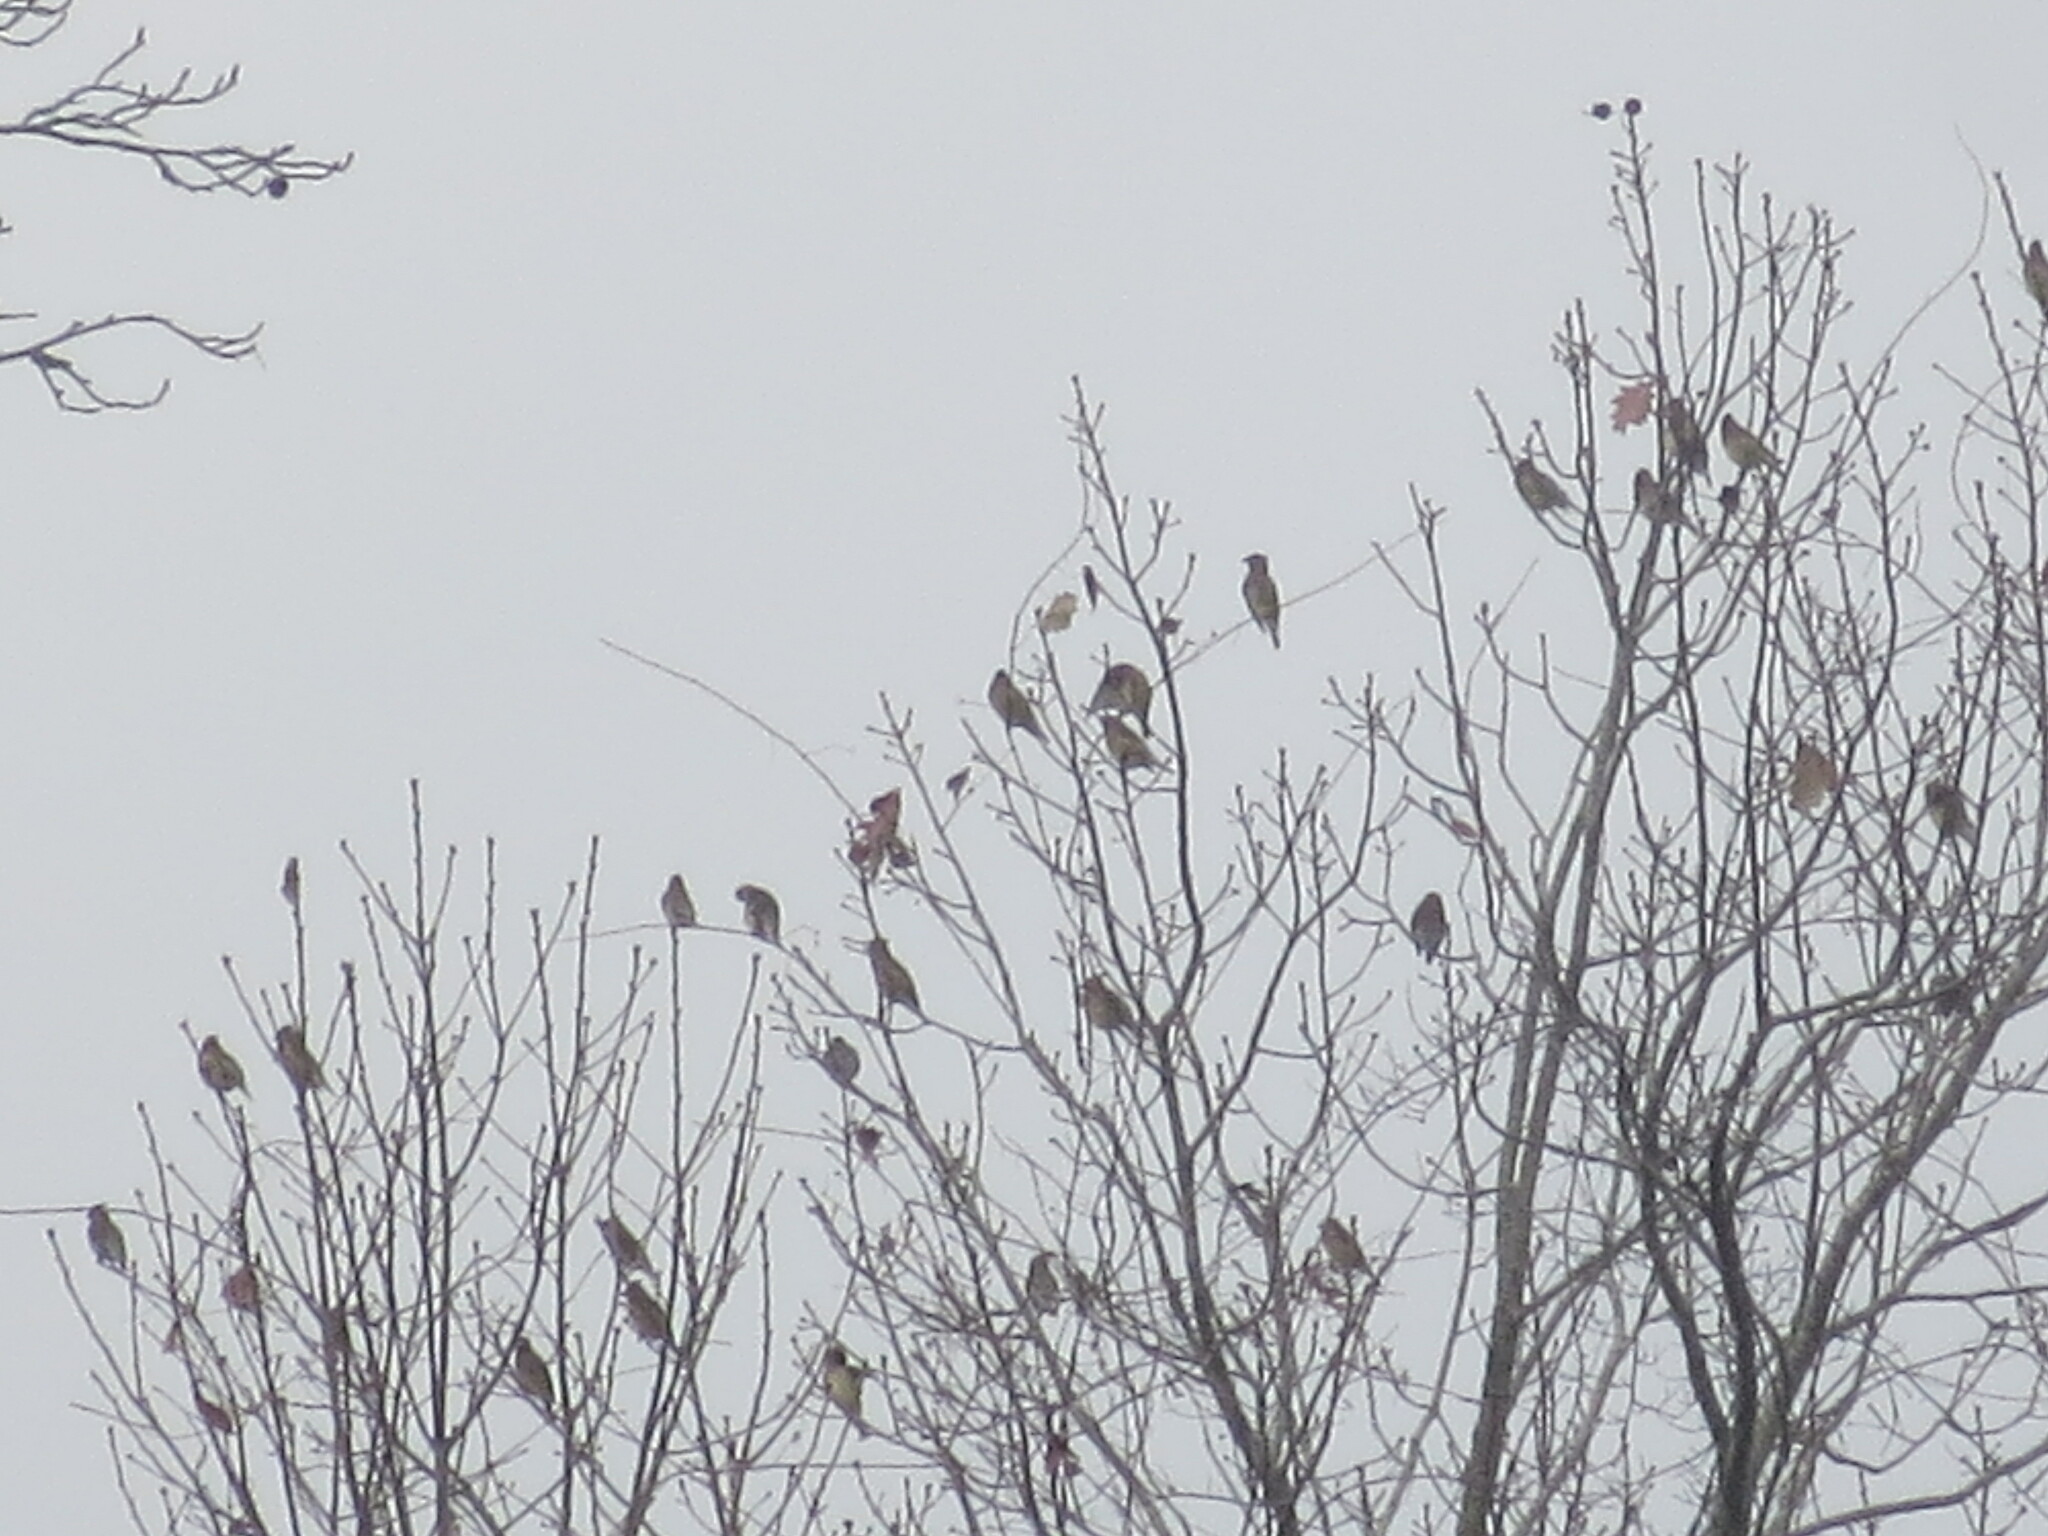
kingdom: Animalia
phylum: Chordata
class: Aves
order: Passeriformes
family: Bombycillidae
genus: Bombycilla
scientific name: Bombycilla cedrorum
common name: Cedar waxwing
